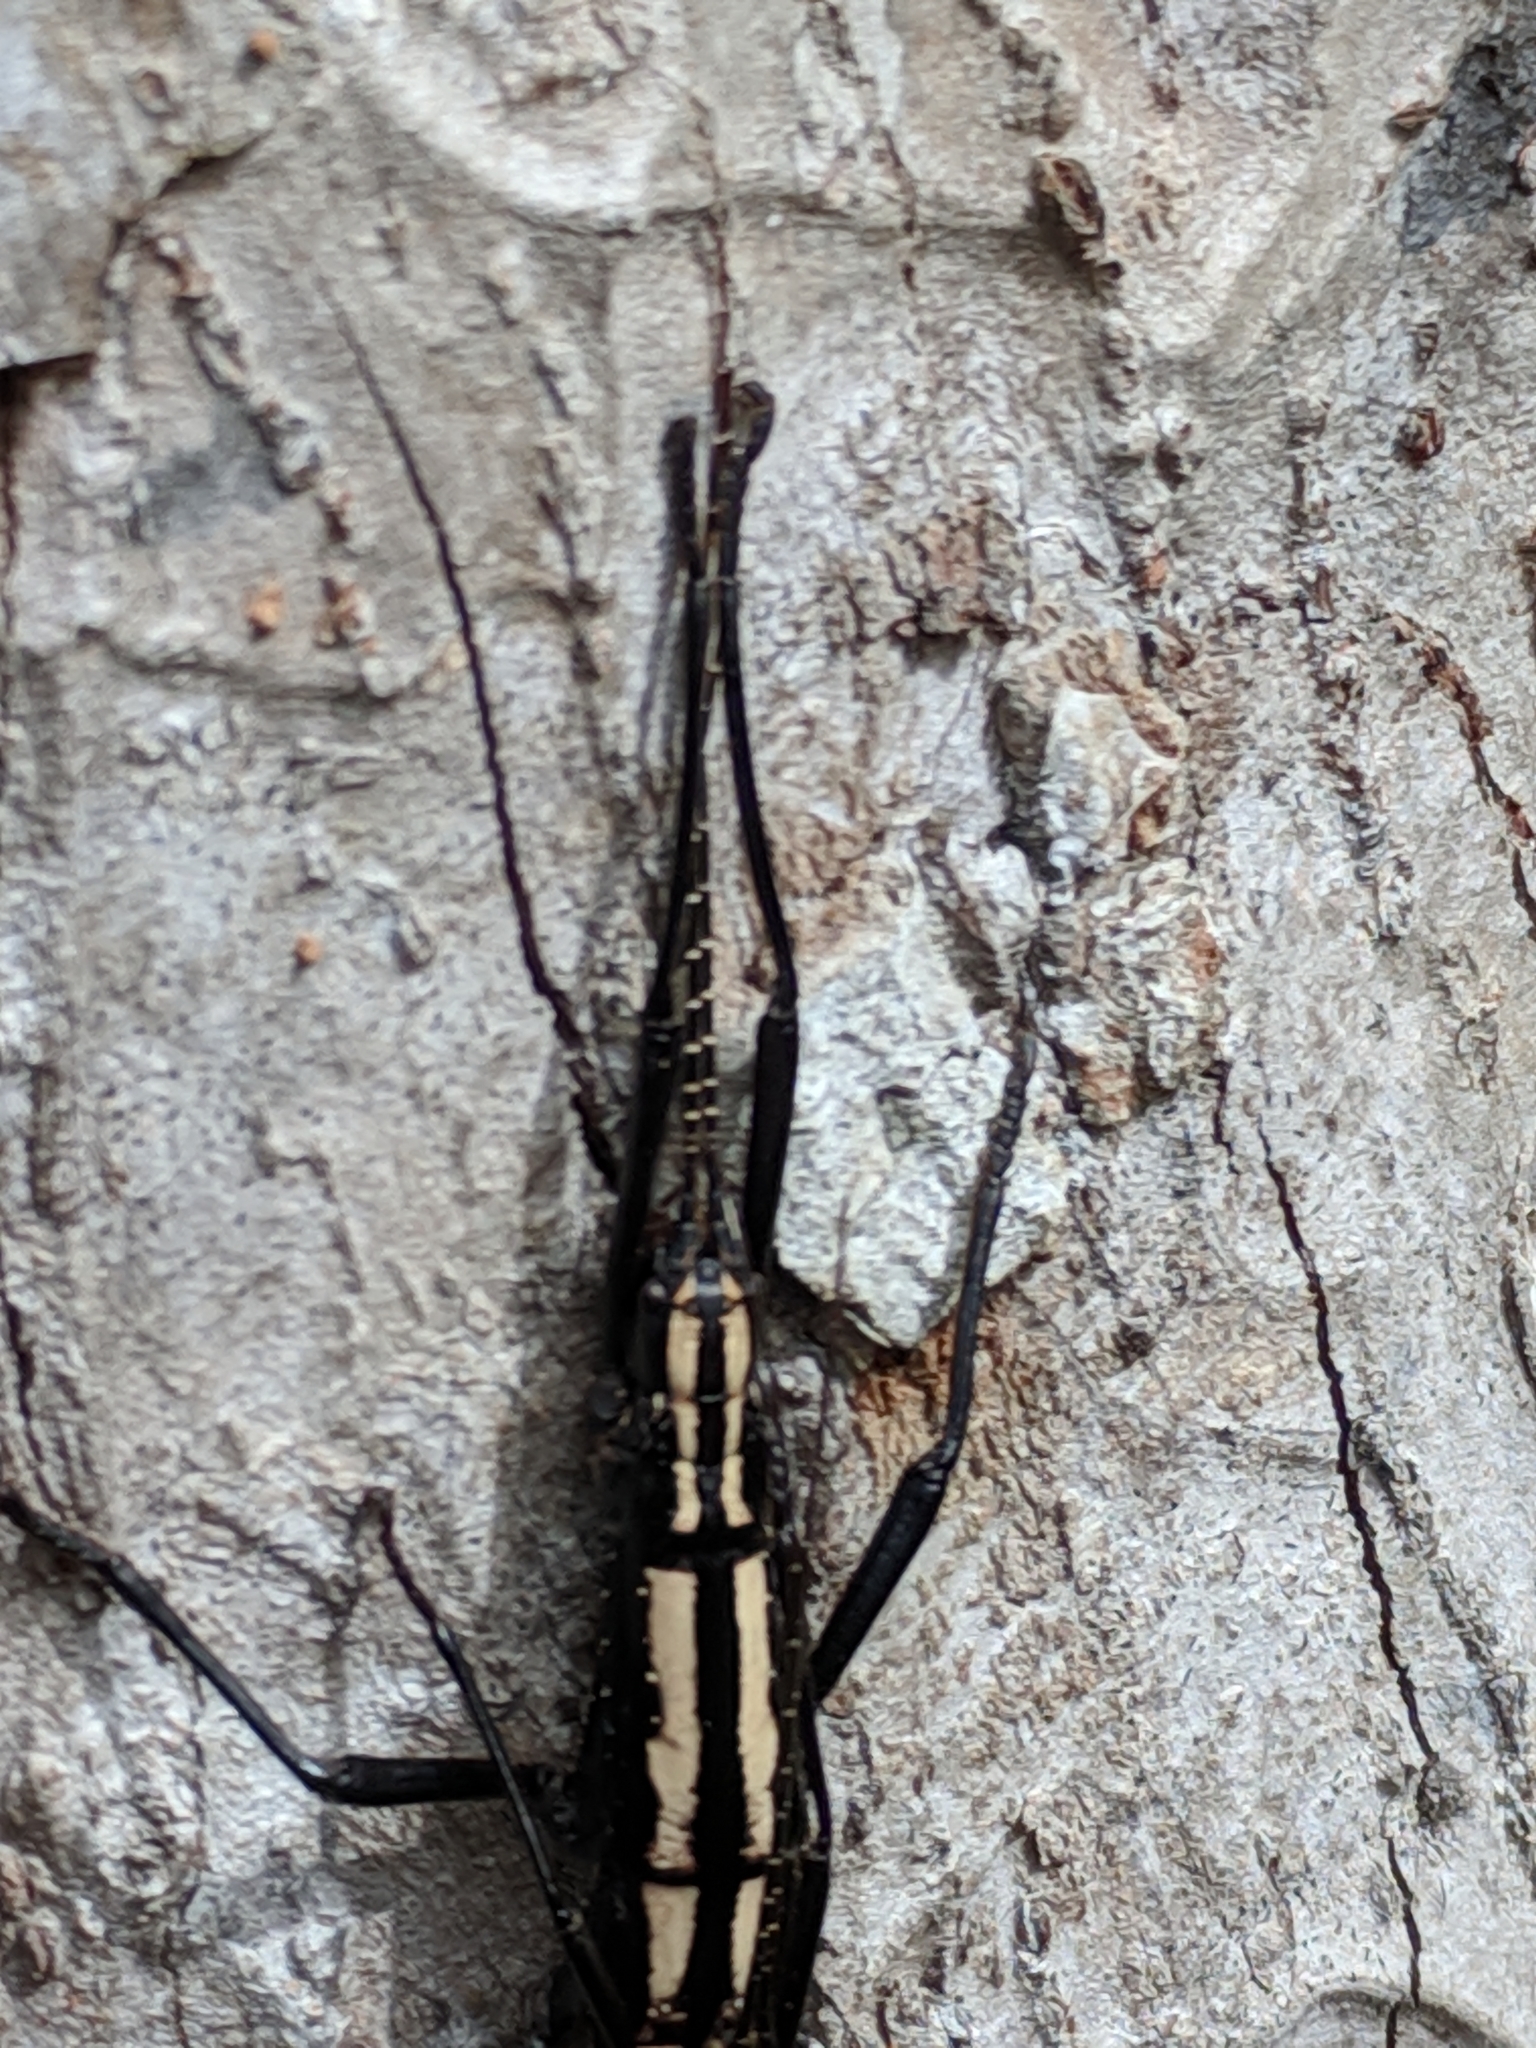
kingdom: Animalia
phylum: Arthropoda
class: Insecta
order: Phasmida
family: Pseudophasmatidae
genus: Anisomorpha
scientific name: Anisomorpha buprestoides
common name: Florida stick insect
